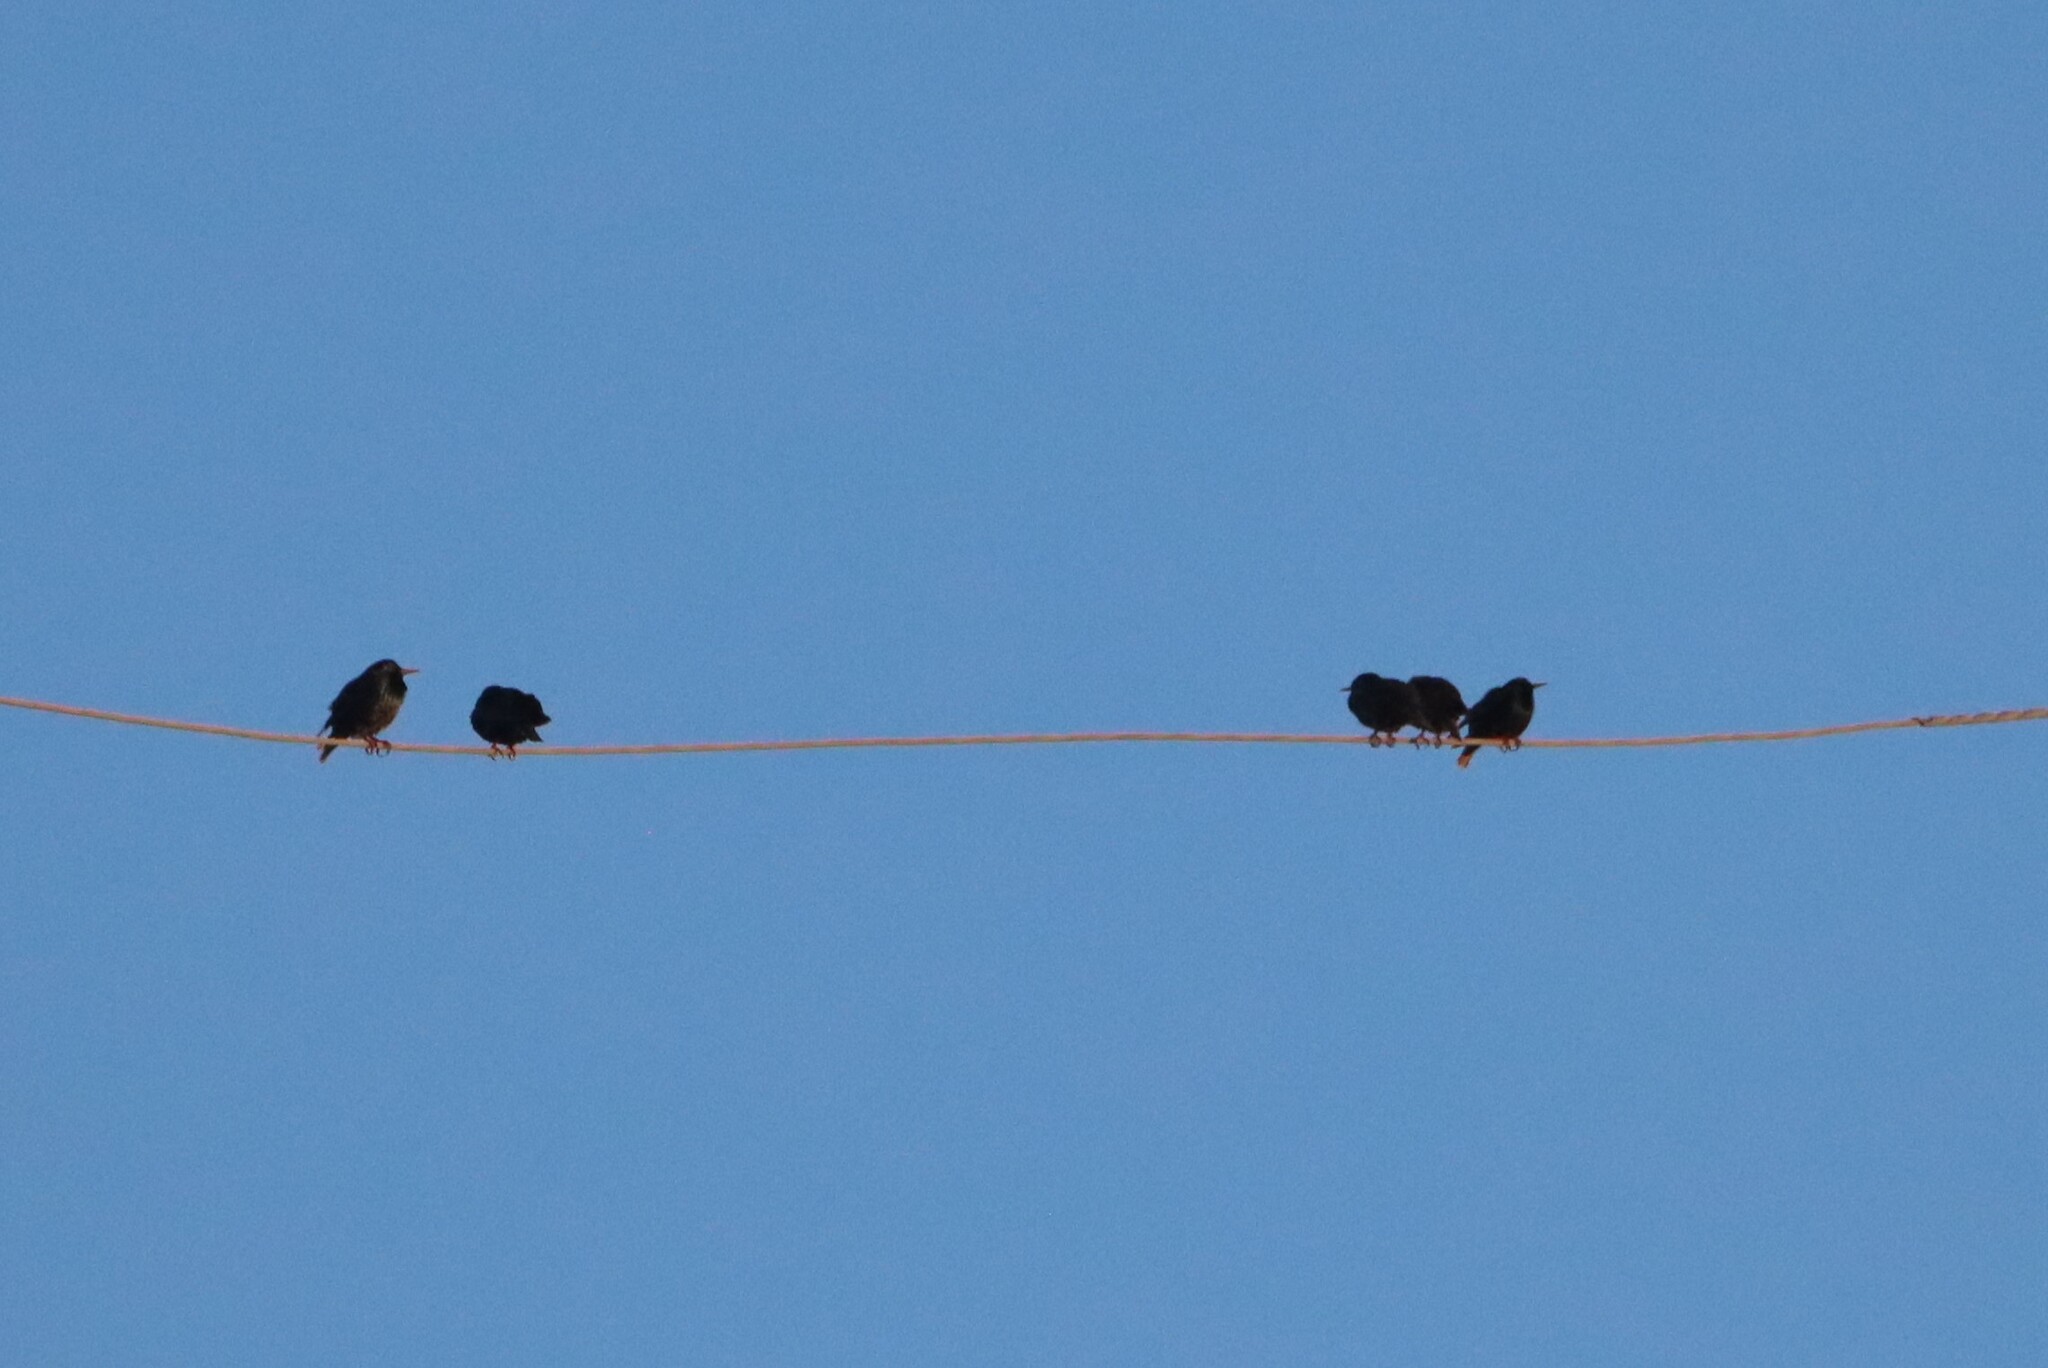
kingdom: Animalia
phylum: Chordata
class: Aves
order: Passeriformes
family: Sturnidae
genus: Sturnus
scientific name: Sturnus vulgaris
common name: Common starling
